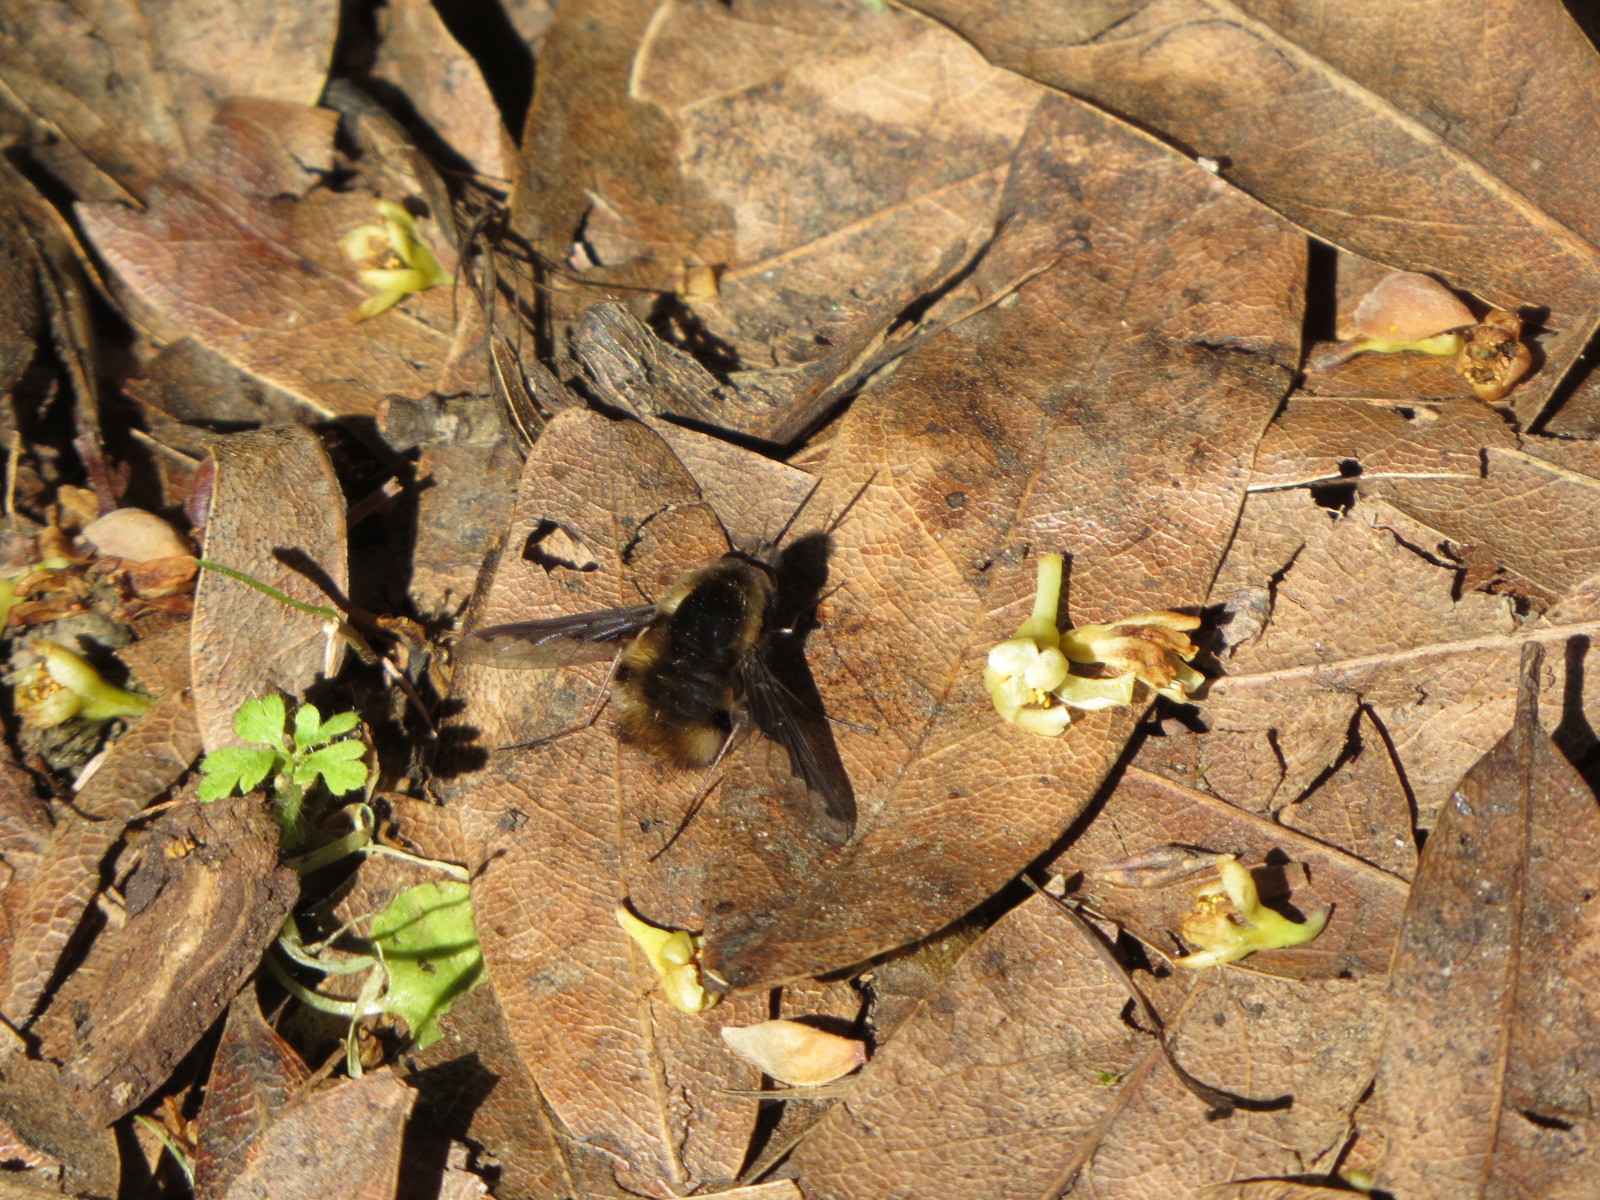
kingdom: Animalia
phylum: Arthropoda
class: Insecta
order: Diptera
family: Bombyliidae
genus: Bombylius
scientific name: Bombylius major
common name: Bee fly
